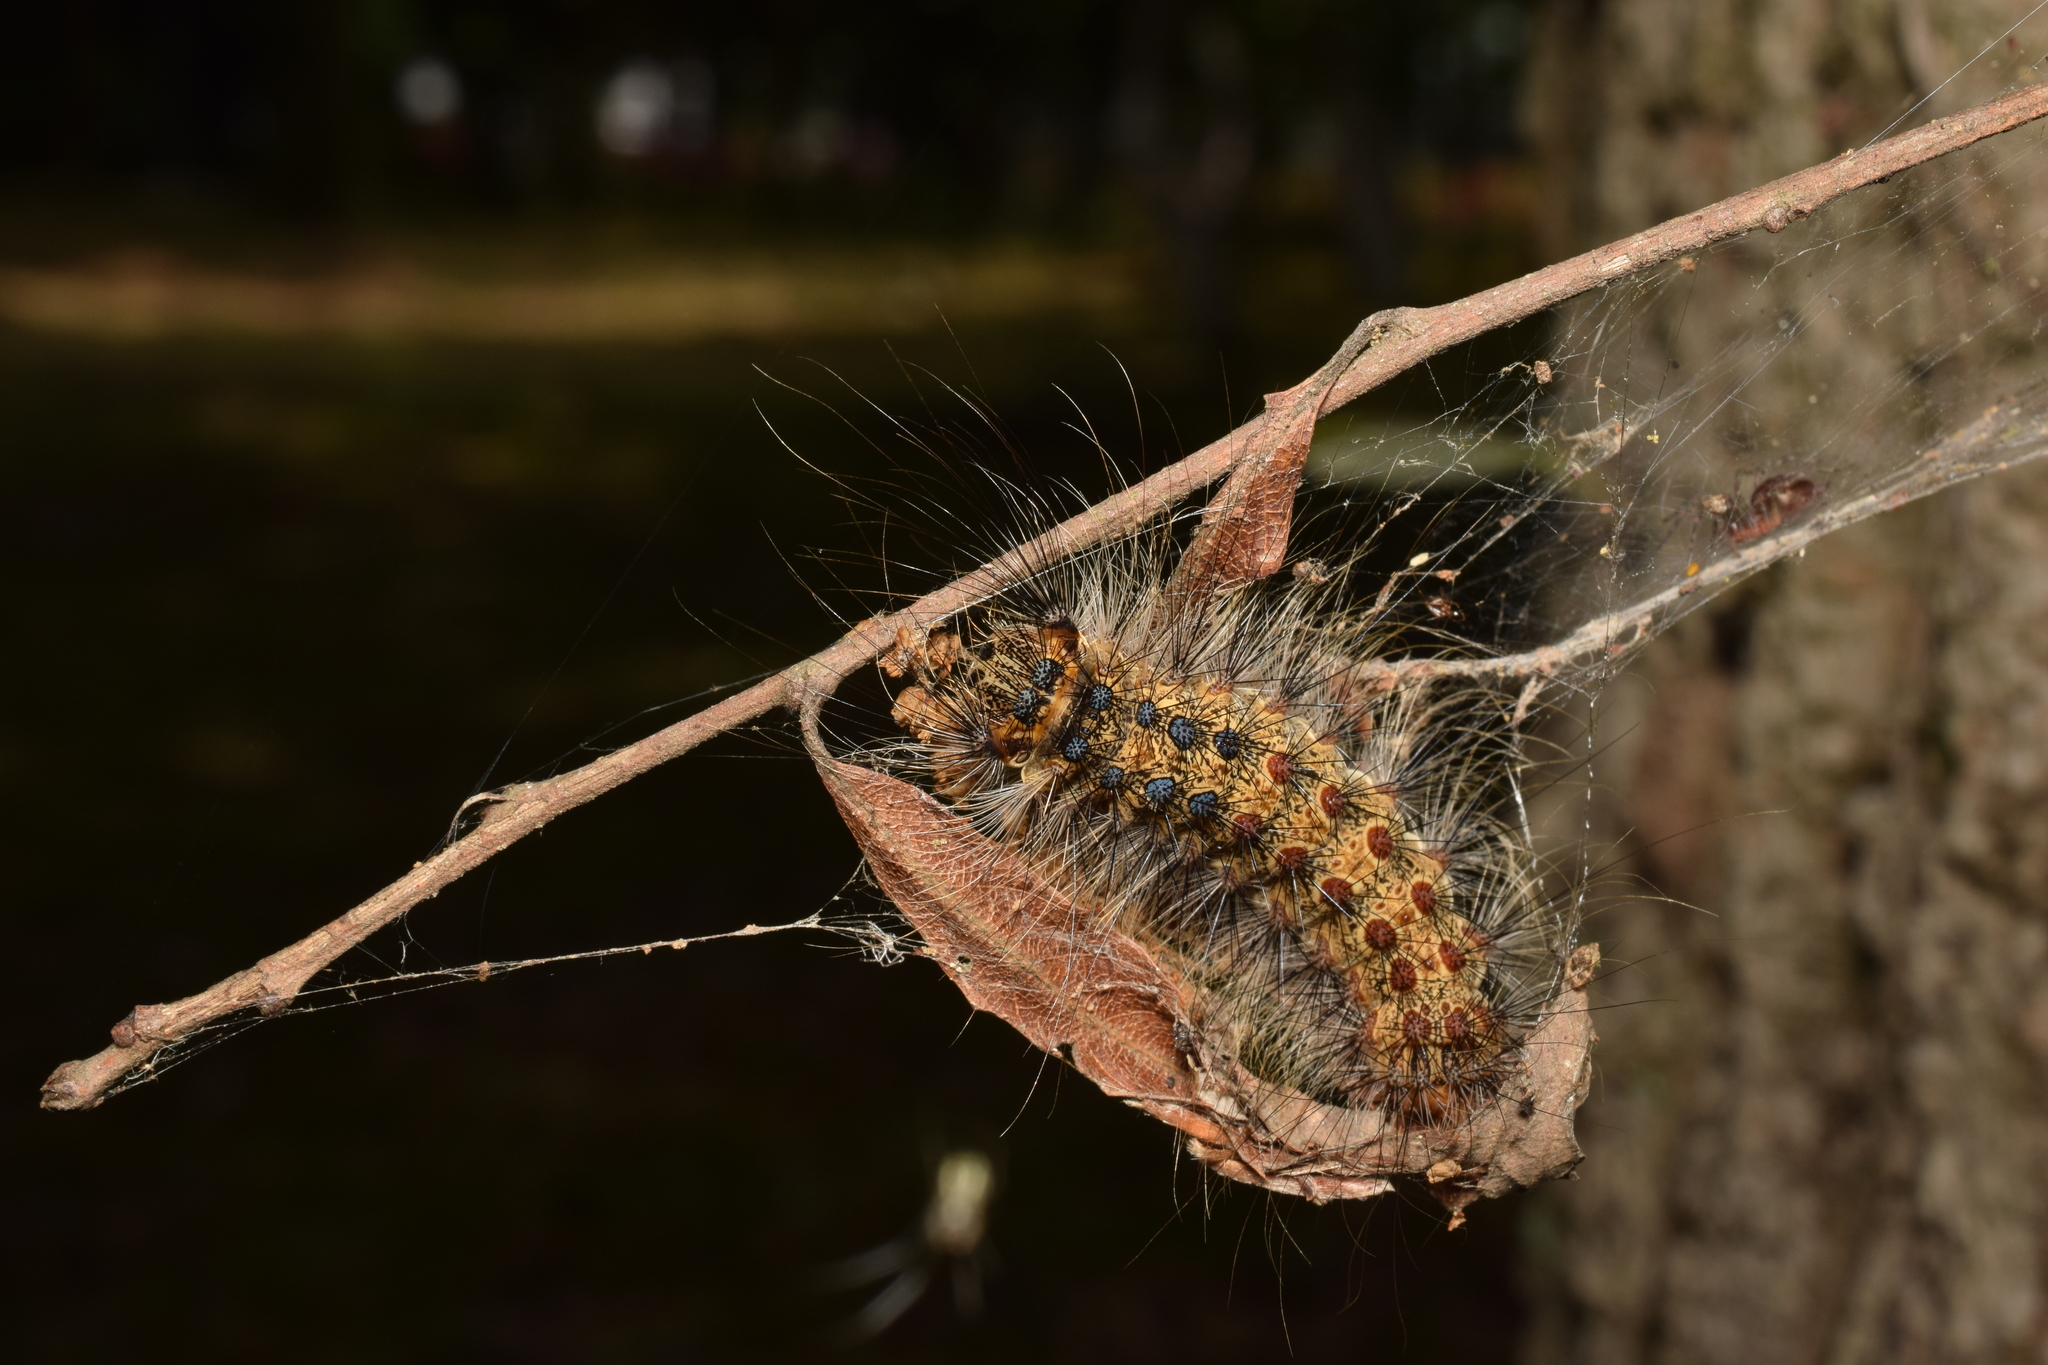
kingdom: Animalia
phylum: Arthropoda
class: Insecta
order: Lepidoptera
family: Erebidae
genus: Lymantria
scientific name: Lymantria dispar
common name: Gypsy moth
